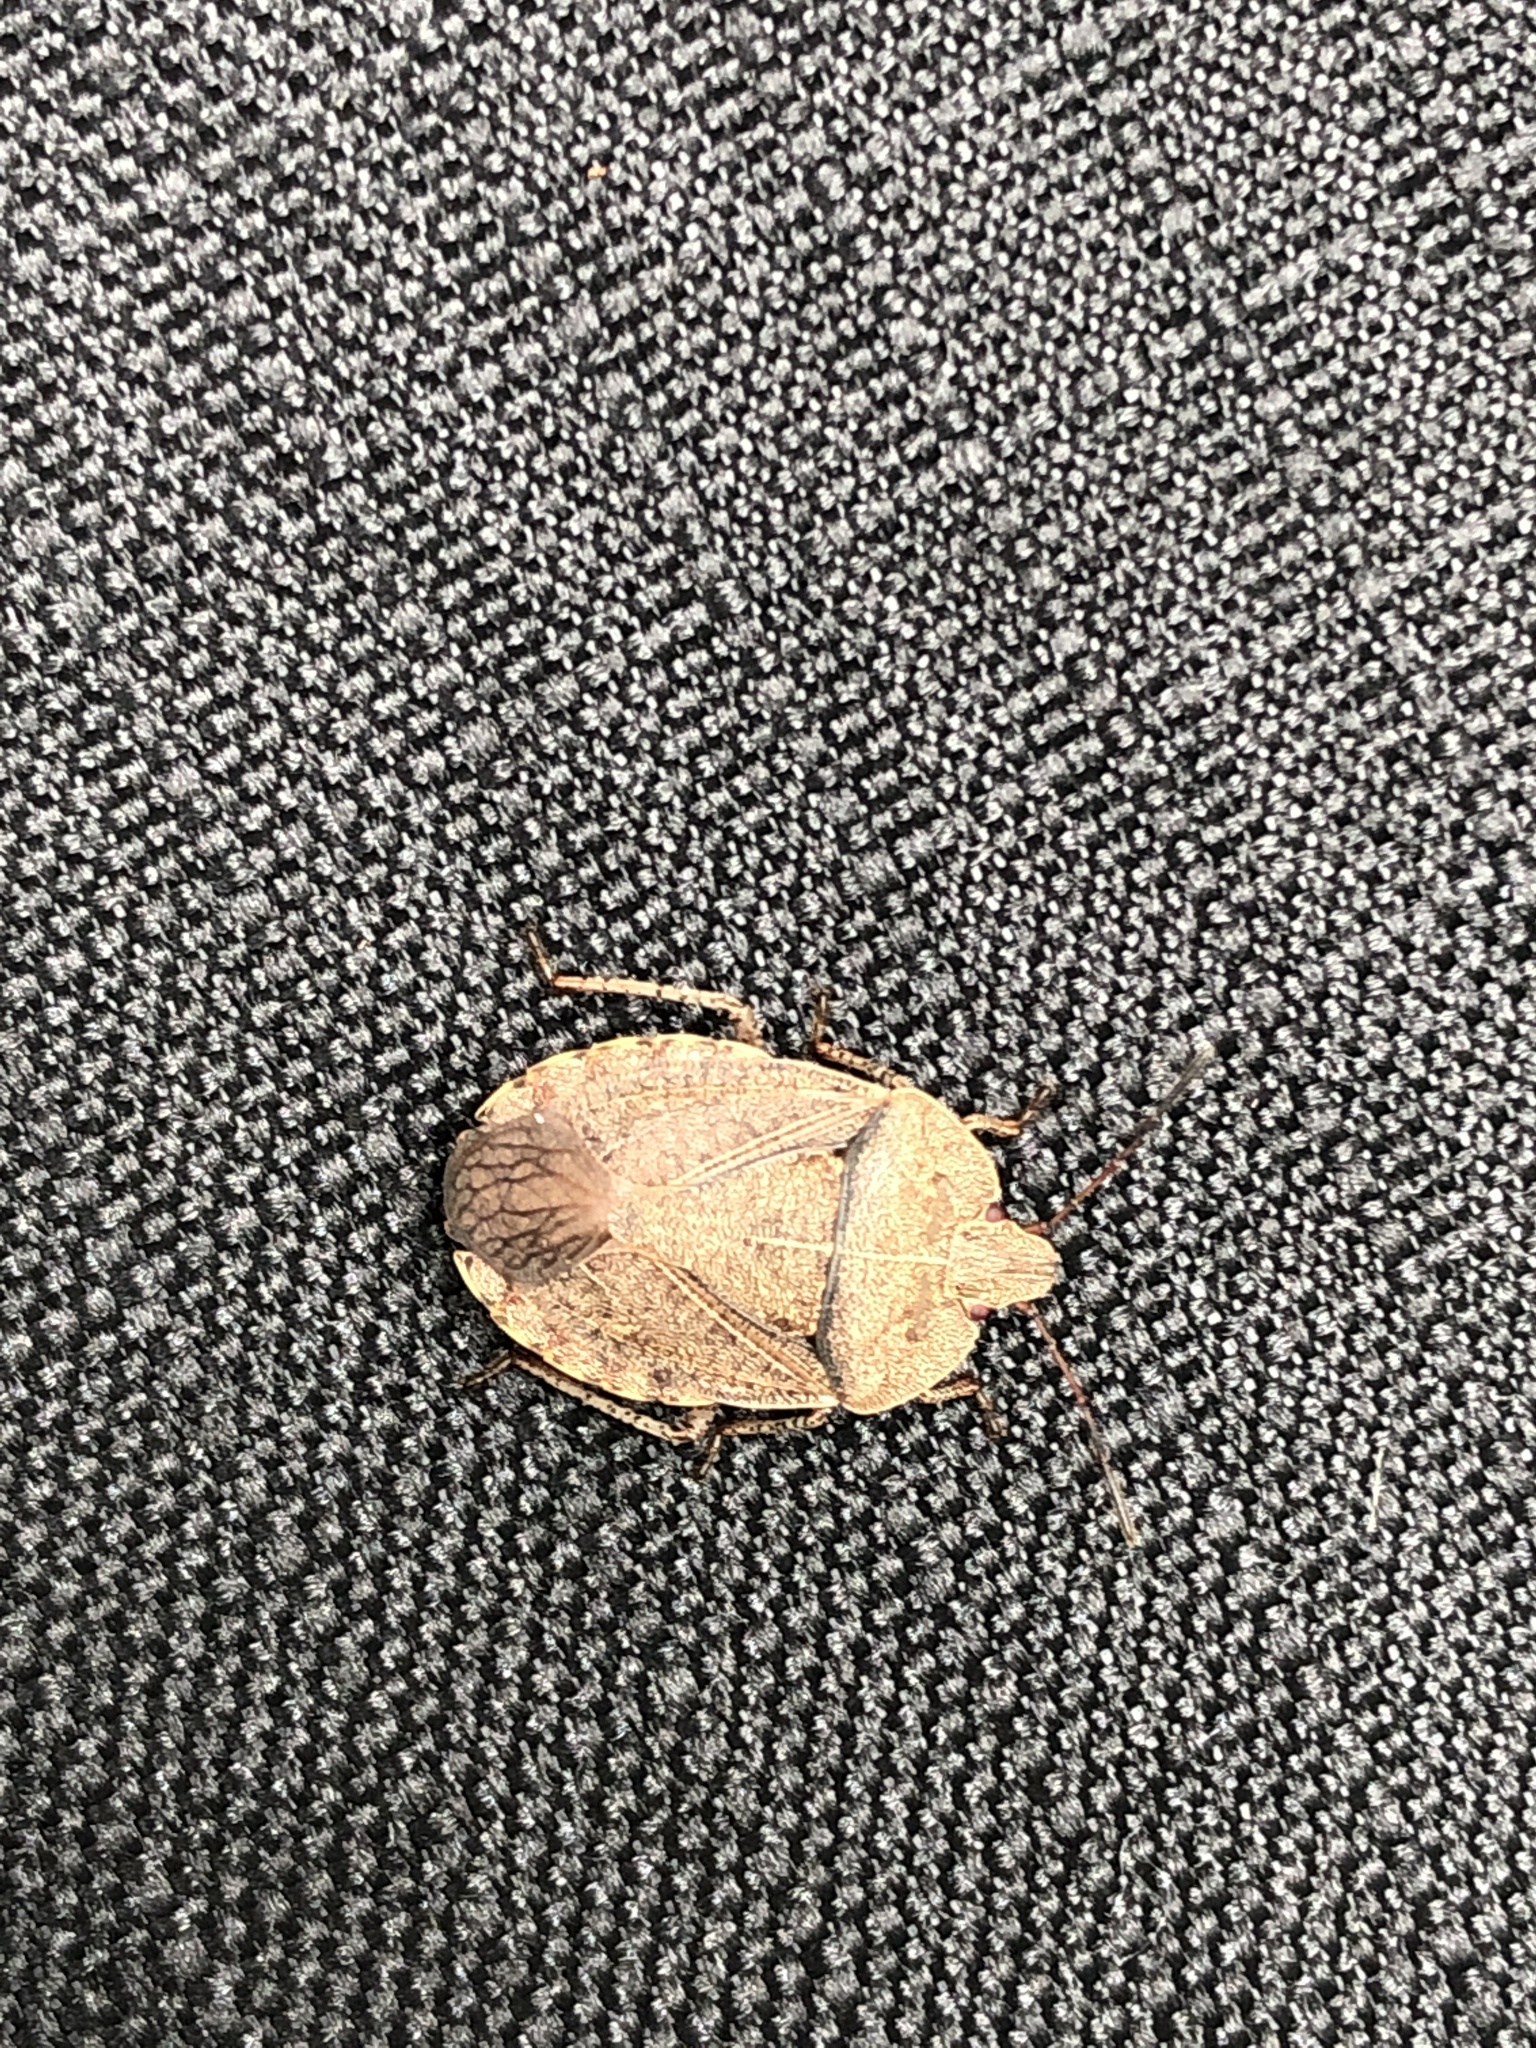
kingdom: Animalia
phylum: Arthropoda
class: Insecta
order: Hemiptera
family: Pentatomidae
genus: Menecles
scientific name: Menecles insertus
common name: Elf shoe stink bug
